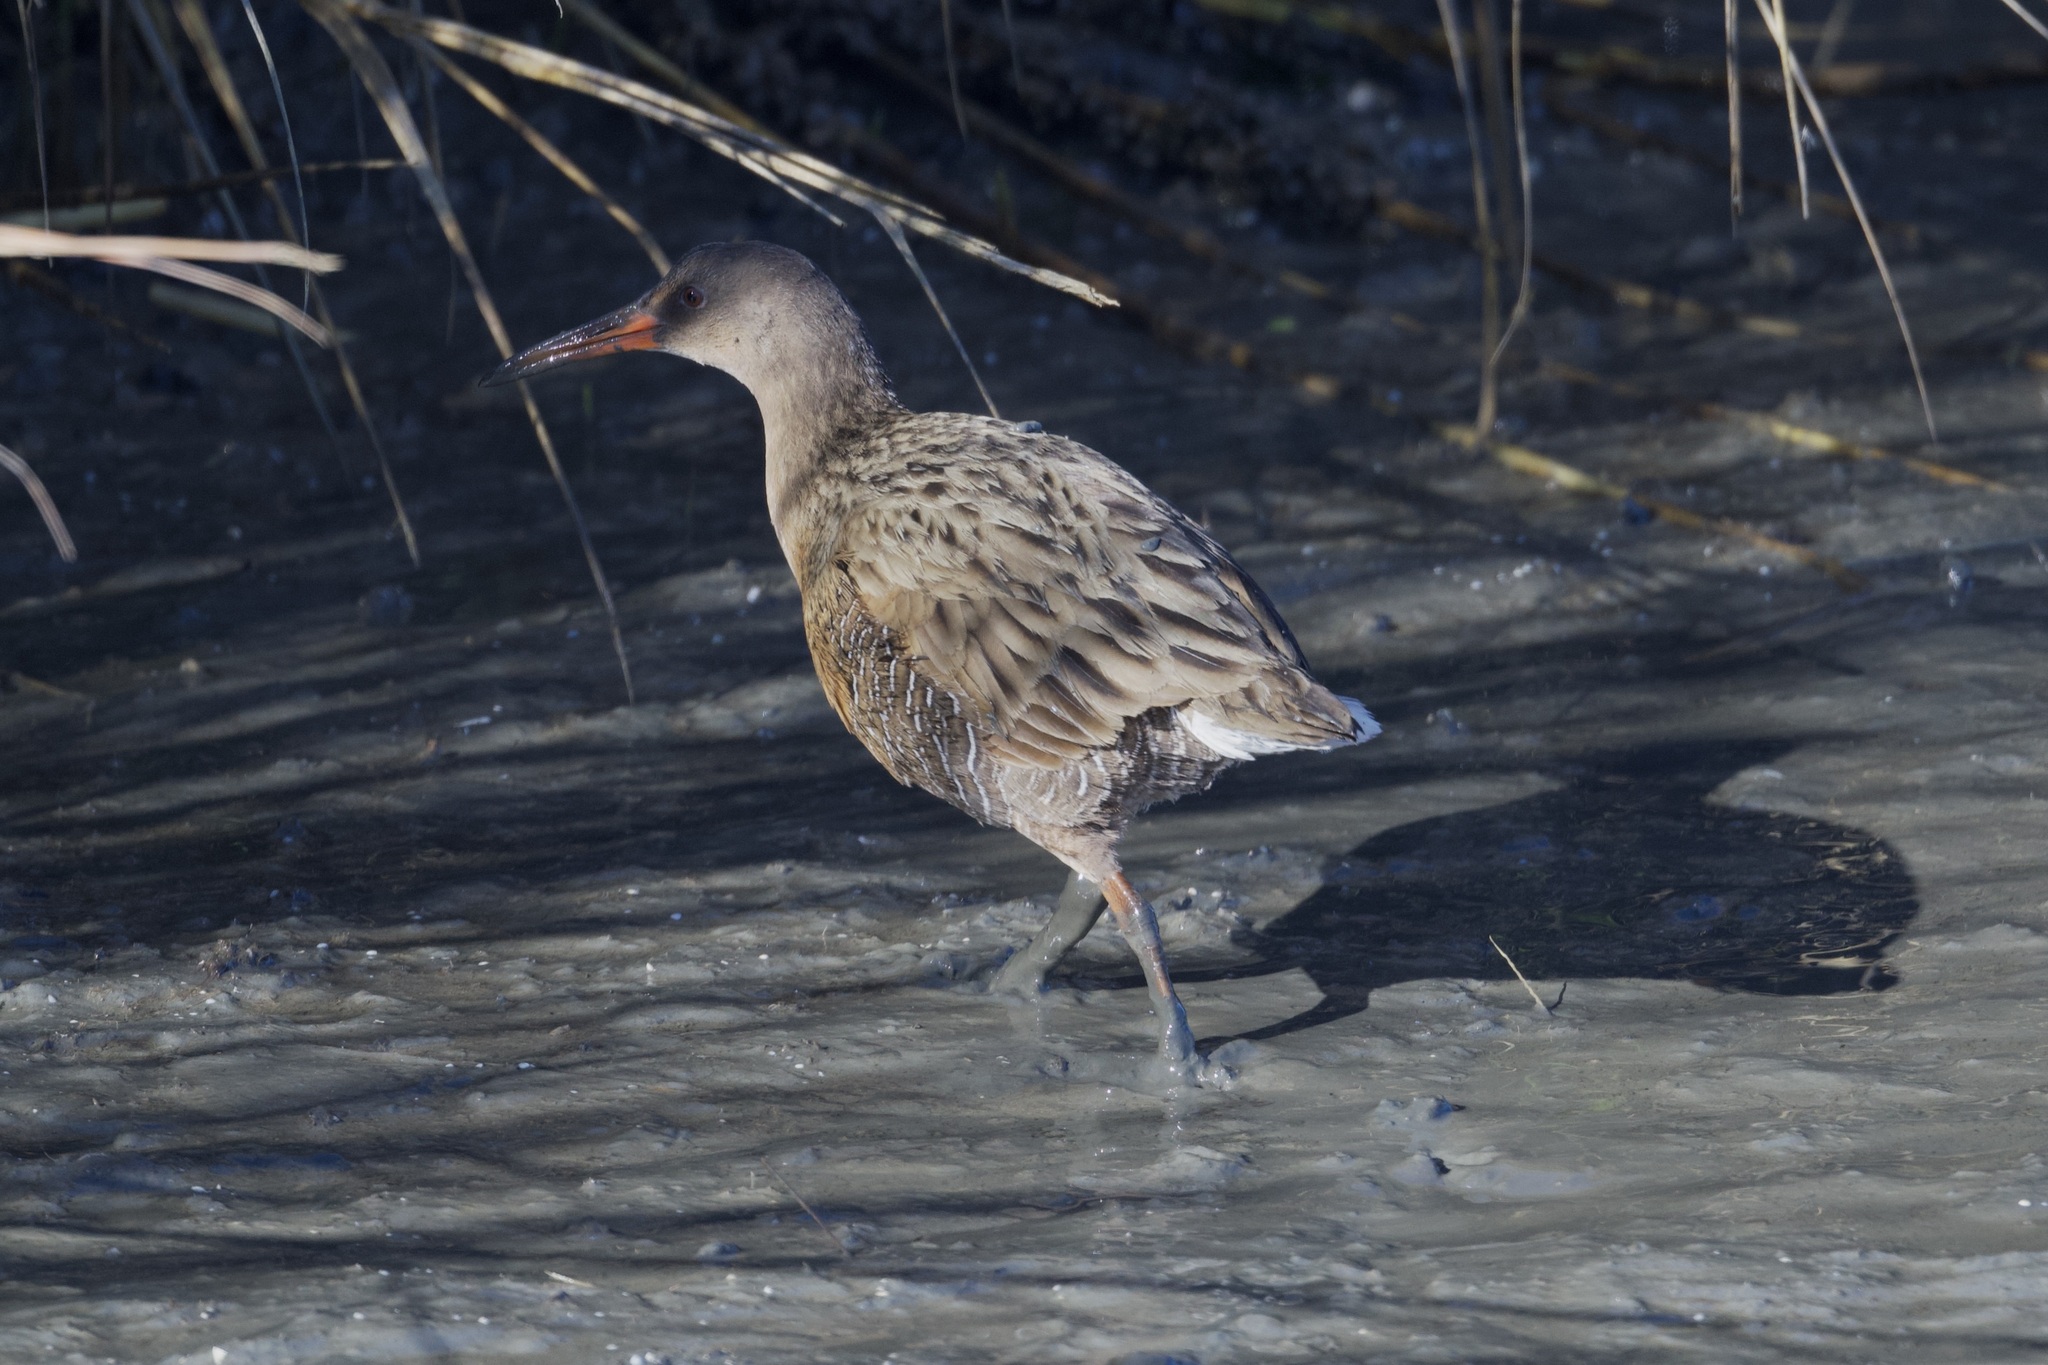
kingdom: Animalia
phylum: Chordata
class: Aves
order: Gruiformes
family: Rallidae
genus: Rallus
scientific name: Rallus obsoletus
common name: Ridgway's rail
